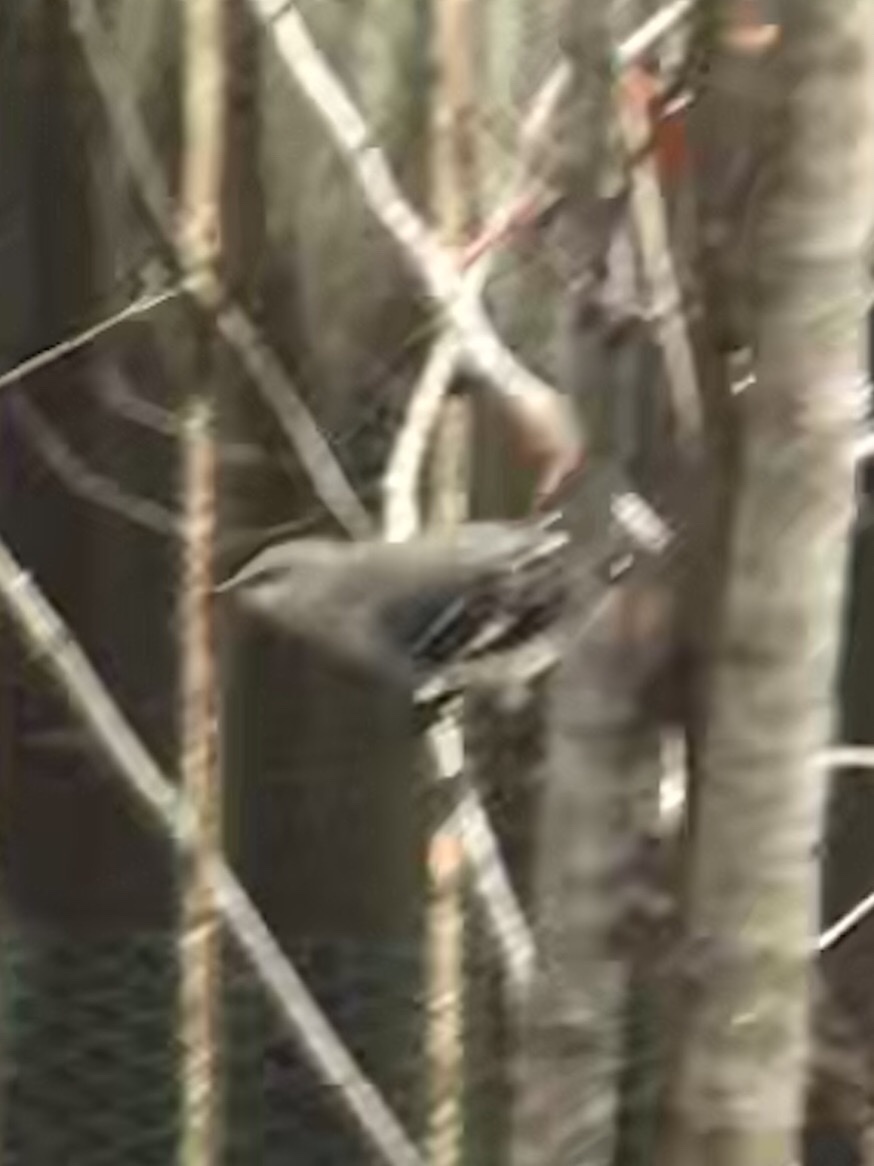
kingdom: Animalia
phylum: Chordata
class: Aves
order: Passeriformes
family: Mimidae
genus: Mimus
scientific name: Mimus polyglottos
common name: Northern mockingbird
